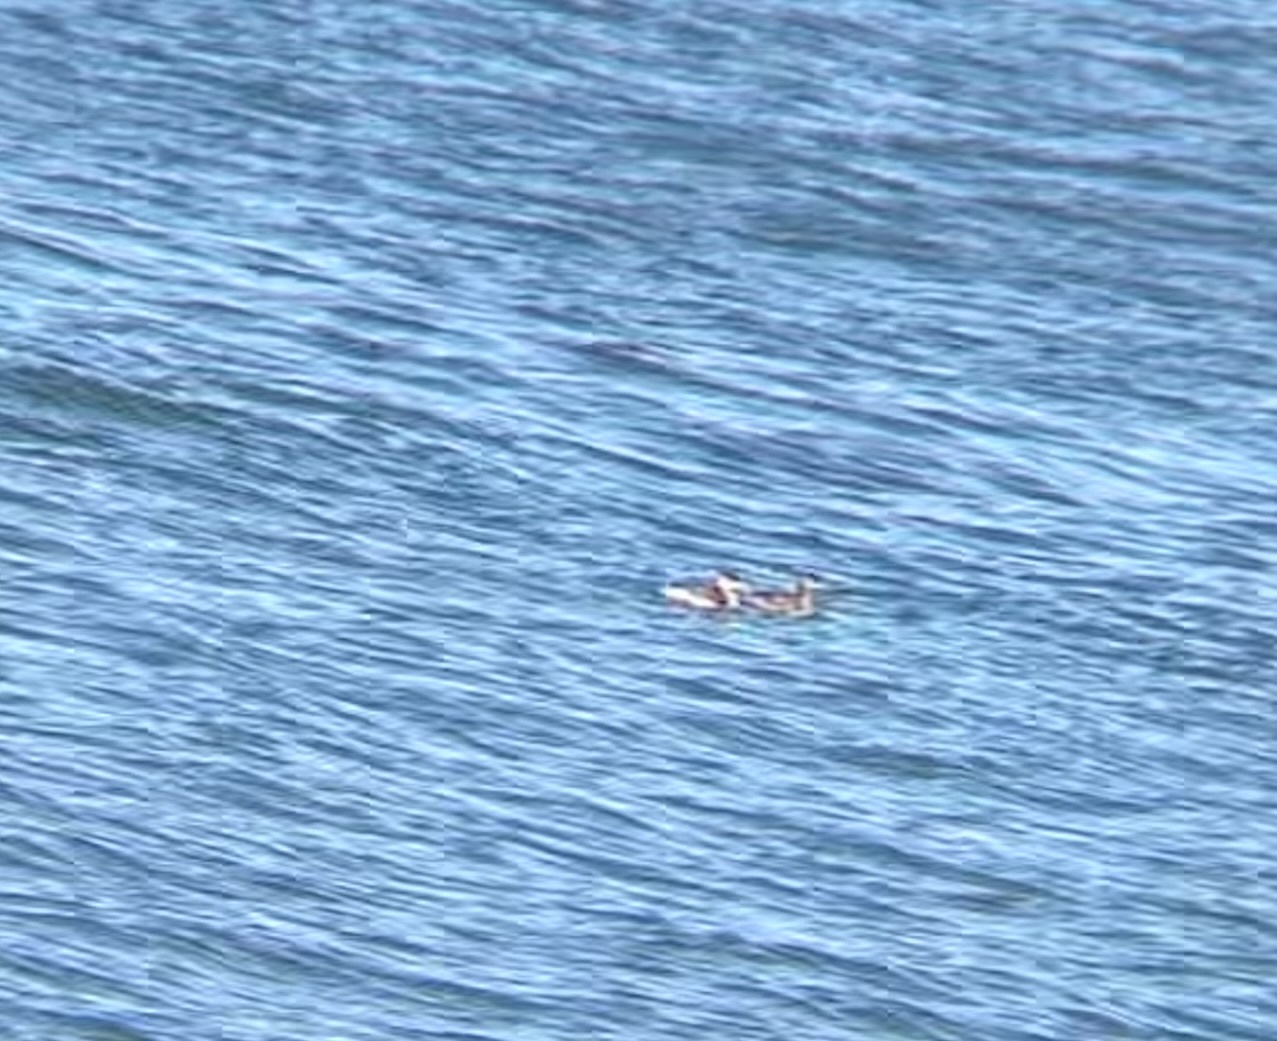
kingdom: Animalia
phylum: Chordata
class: Aves
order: Podicipediformes
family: Podicipedidae
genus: Podiceps
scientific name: Podiceps grisegena
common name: Red-necked grebe
